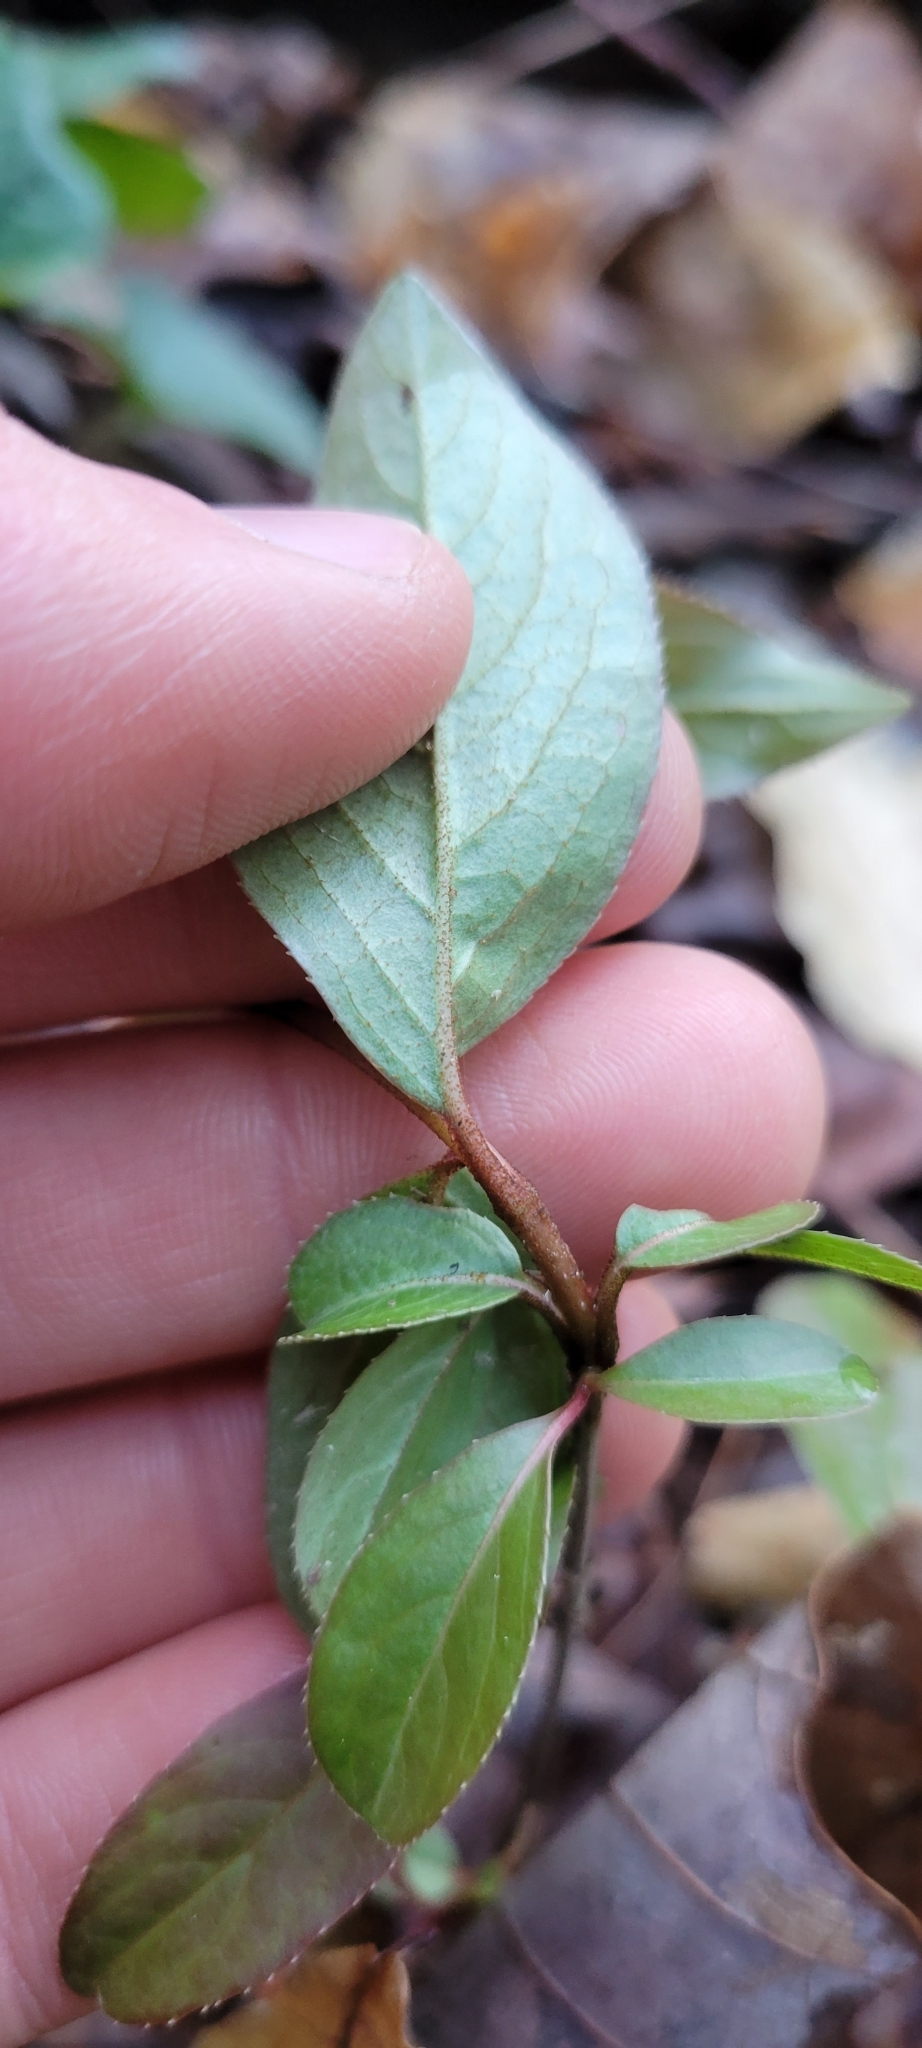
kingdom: Plantae
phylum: Tracheophyta
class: Magnoliopsida
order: Dipsacales
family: Viburnaceae
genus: Viburnum
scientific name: Viburnum rufidulum
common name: Blue haw
